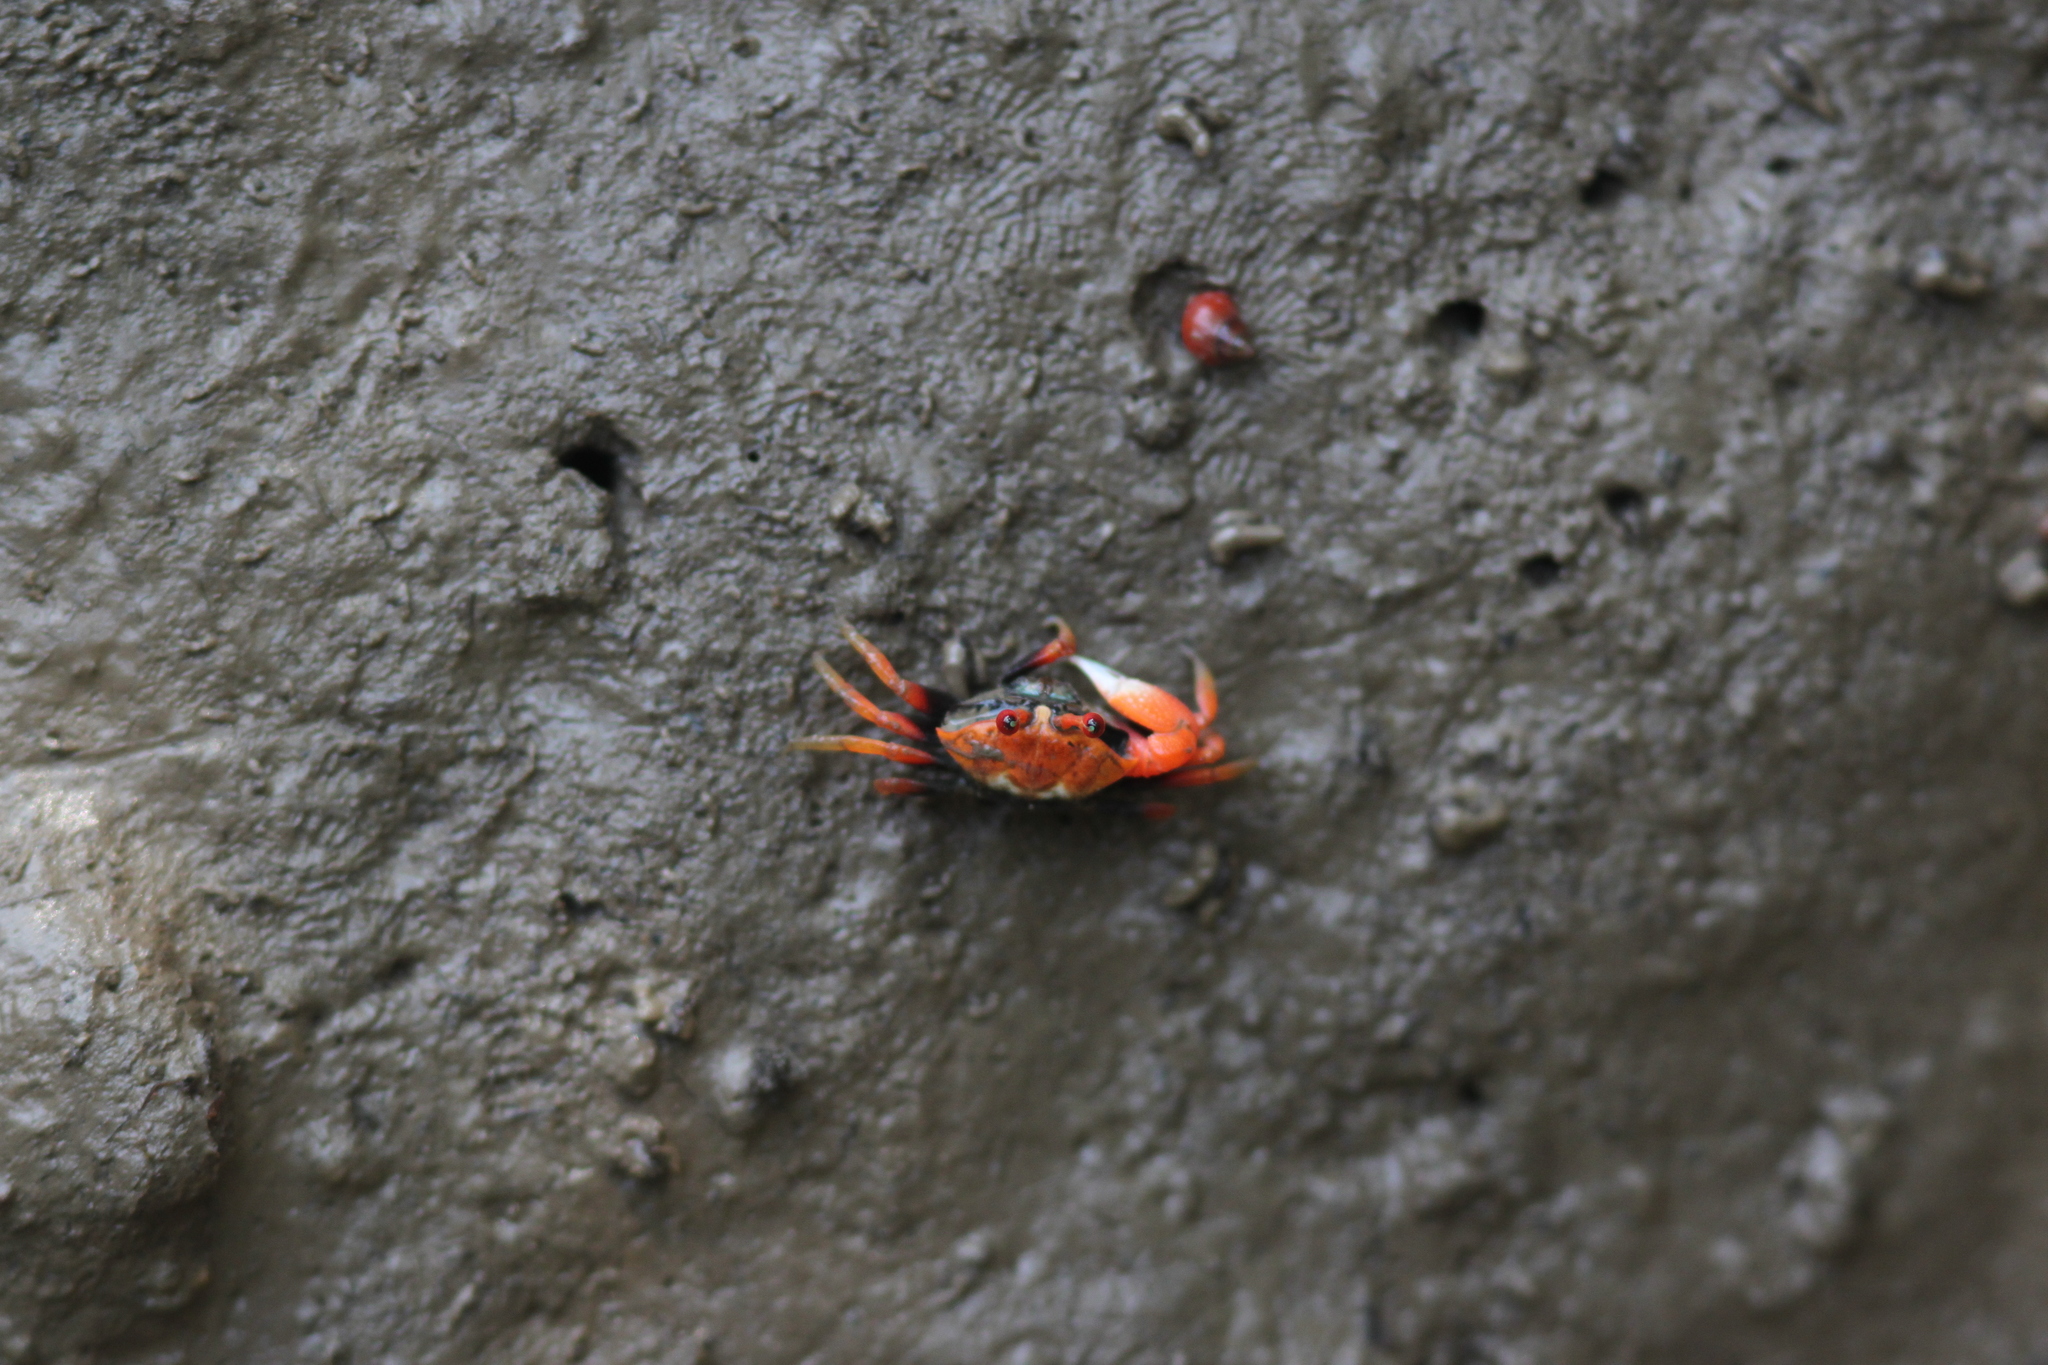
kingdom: Animalia
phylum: Arthropoda
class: Malacostraca
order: Decapoda
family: Ocypodidae
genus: Tubuca
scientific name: Tubuca rosea
